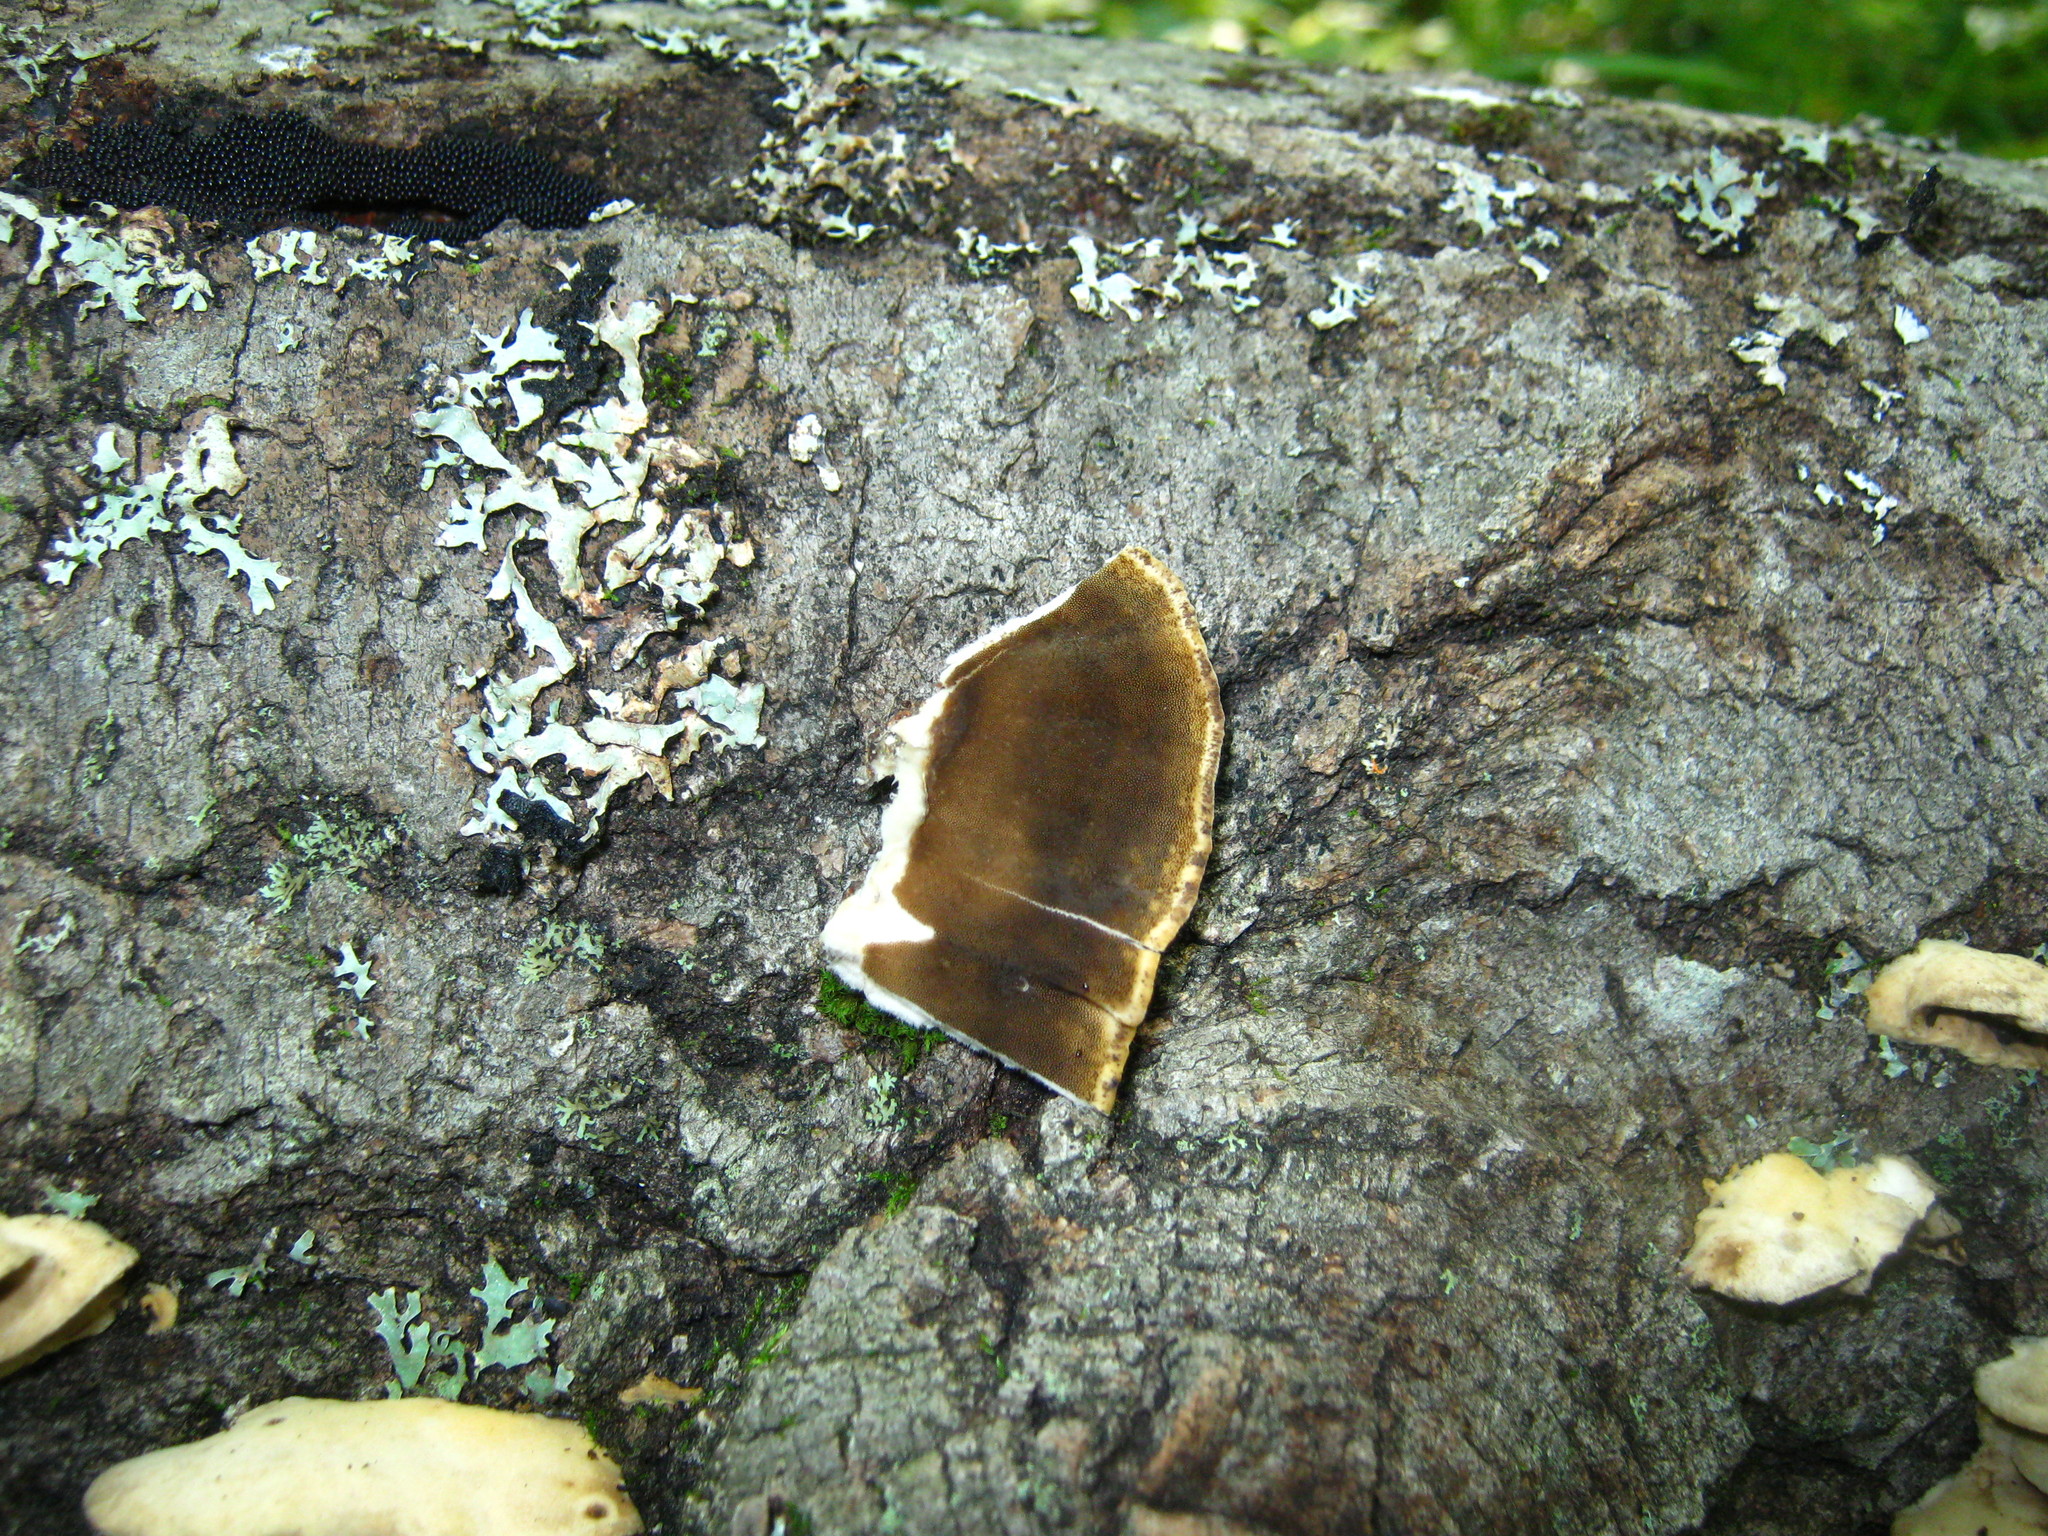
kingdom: Fungi
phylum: Basidiomycota
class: Agaricomycetes
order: Polyporales
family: Phanerochaetaceae
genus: Bjerkandera
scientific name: Bjerkandera adusta
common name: Smoky bracket
